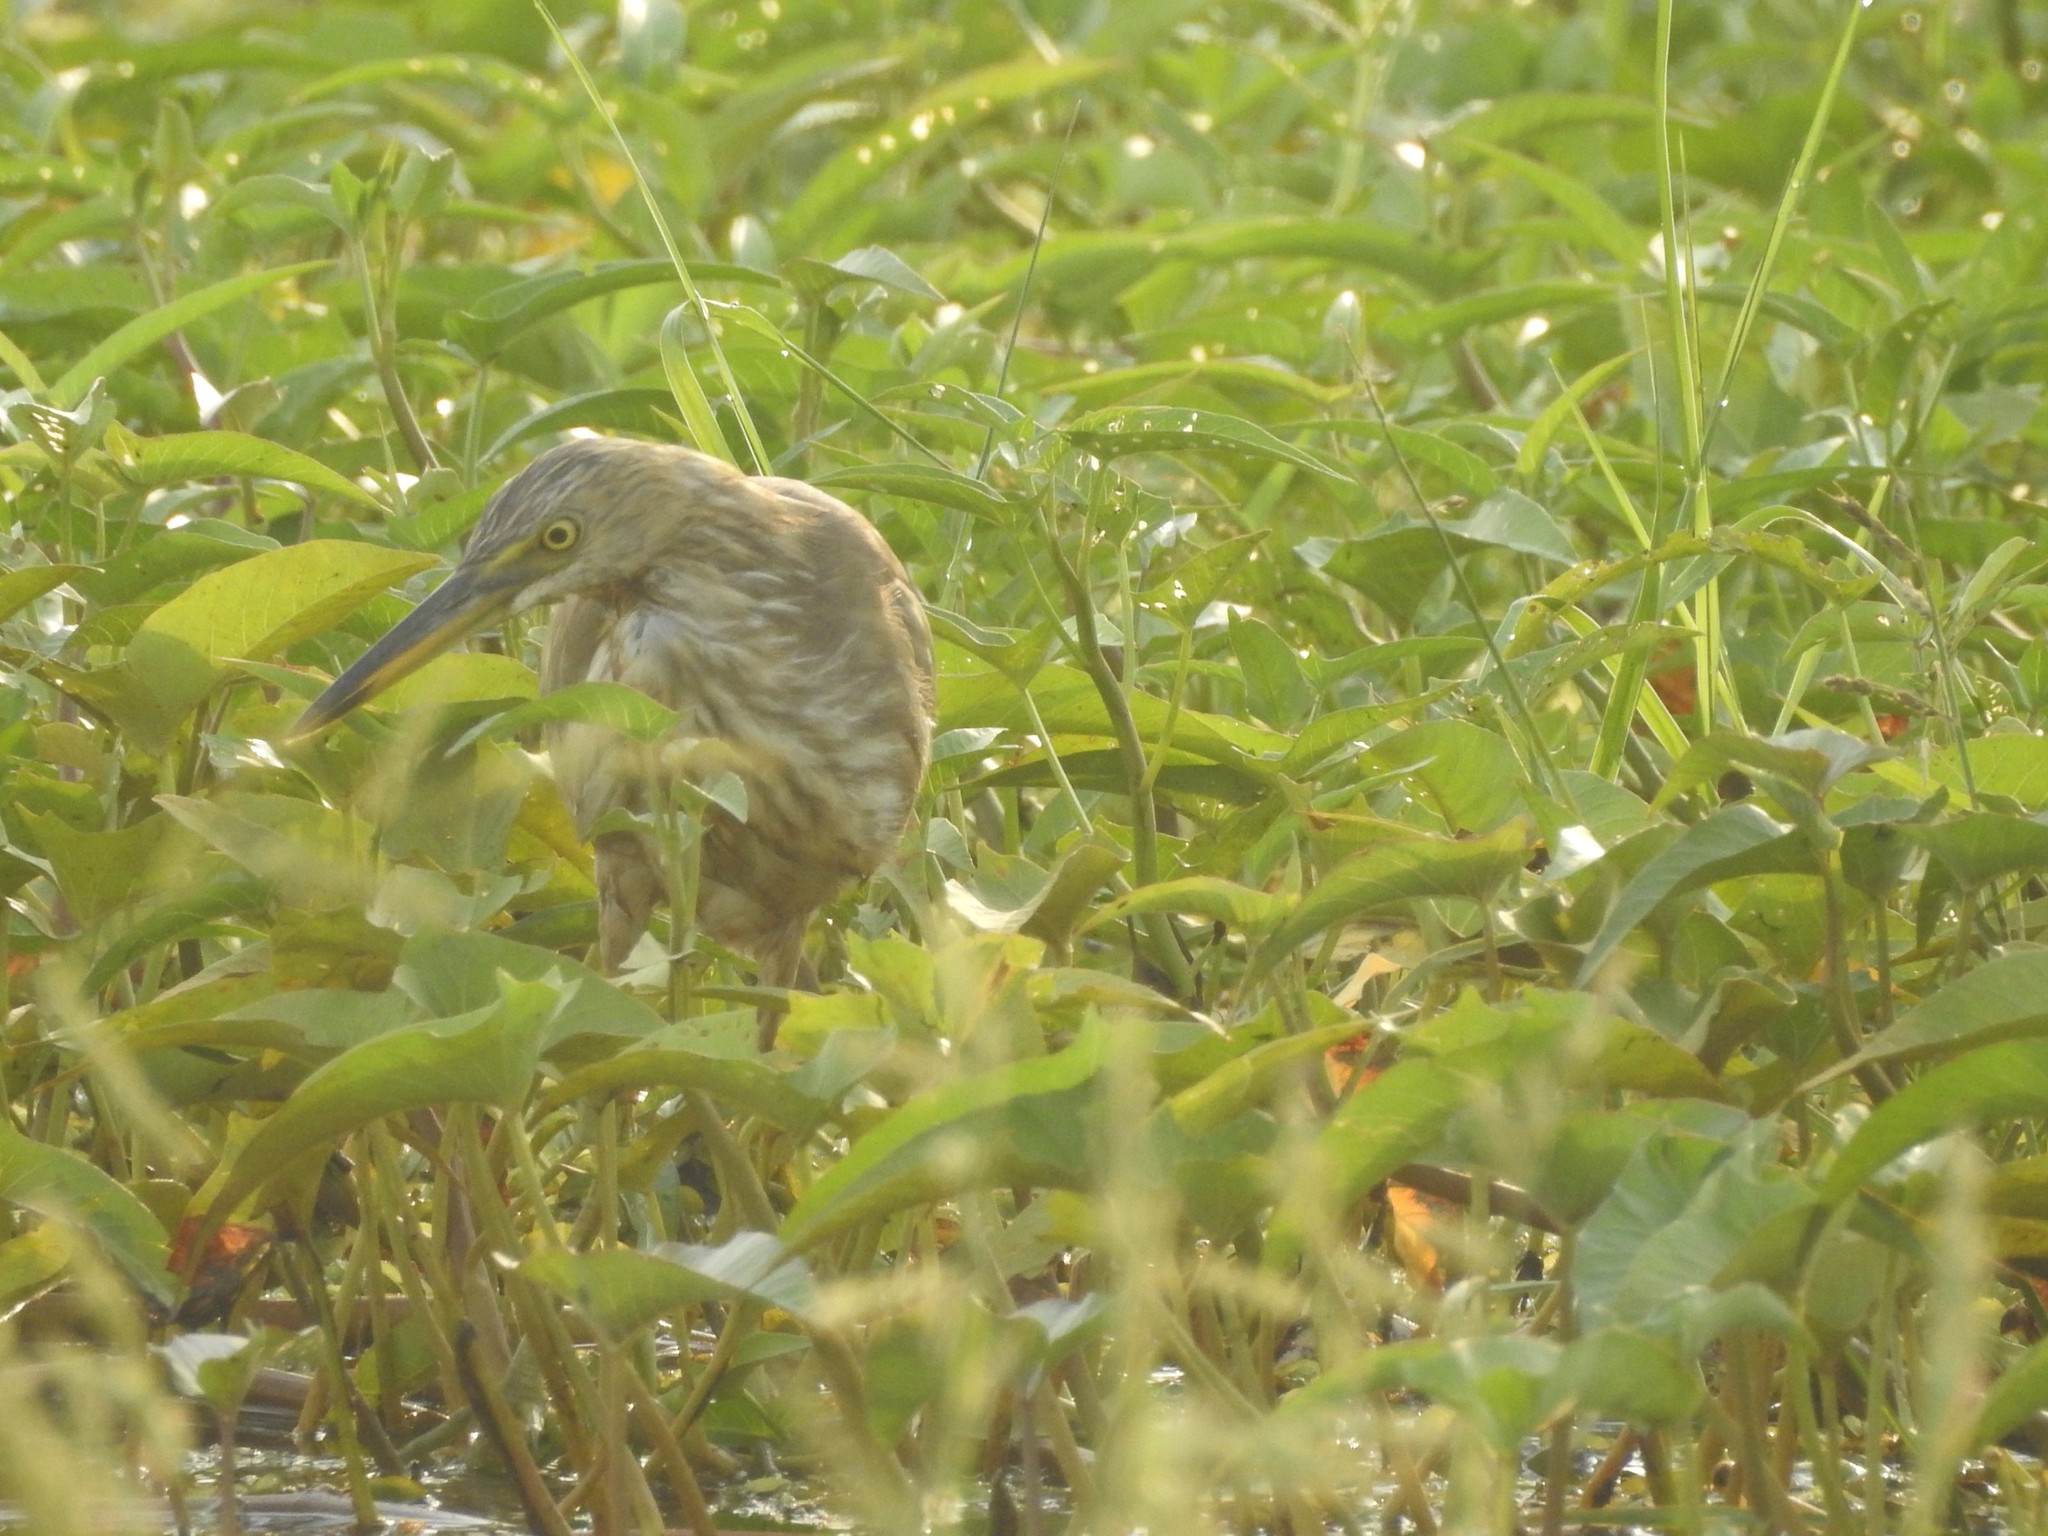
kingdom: Animalia
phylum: Chordata
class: Aves
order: Pelecaniformes
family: Ardeidae
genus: Ardeola
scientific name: Ardeola grayii
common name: Indian pond heron
